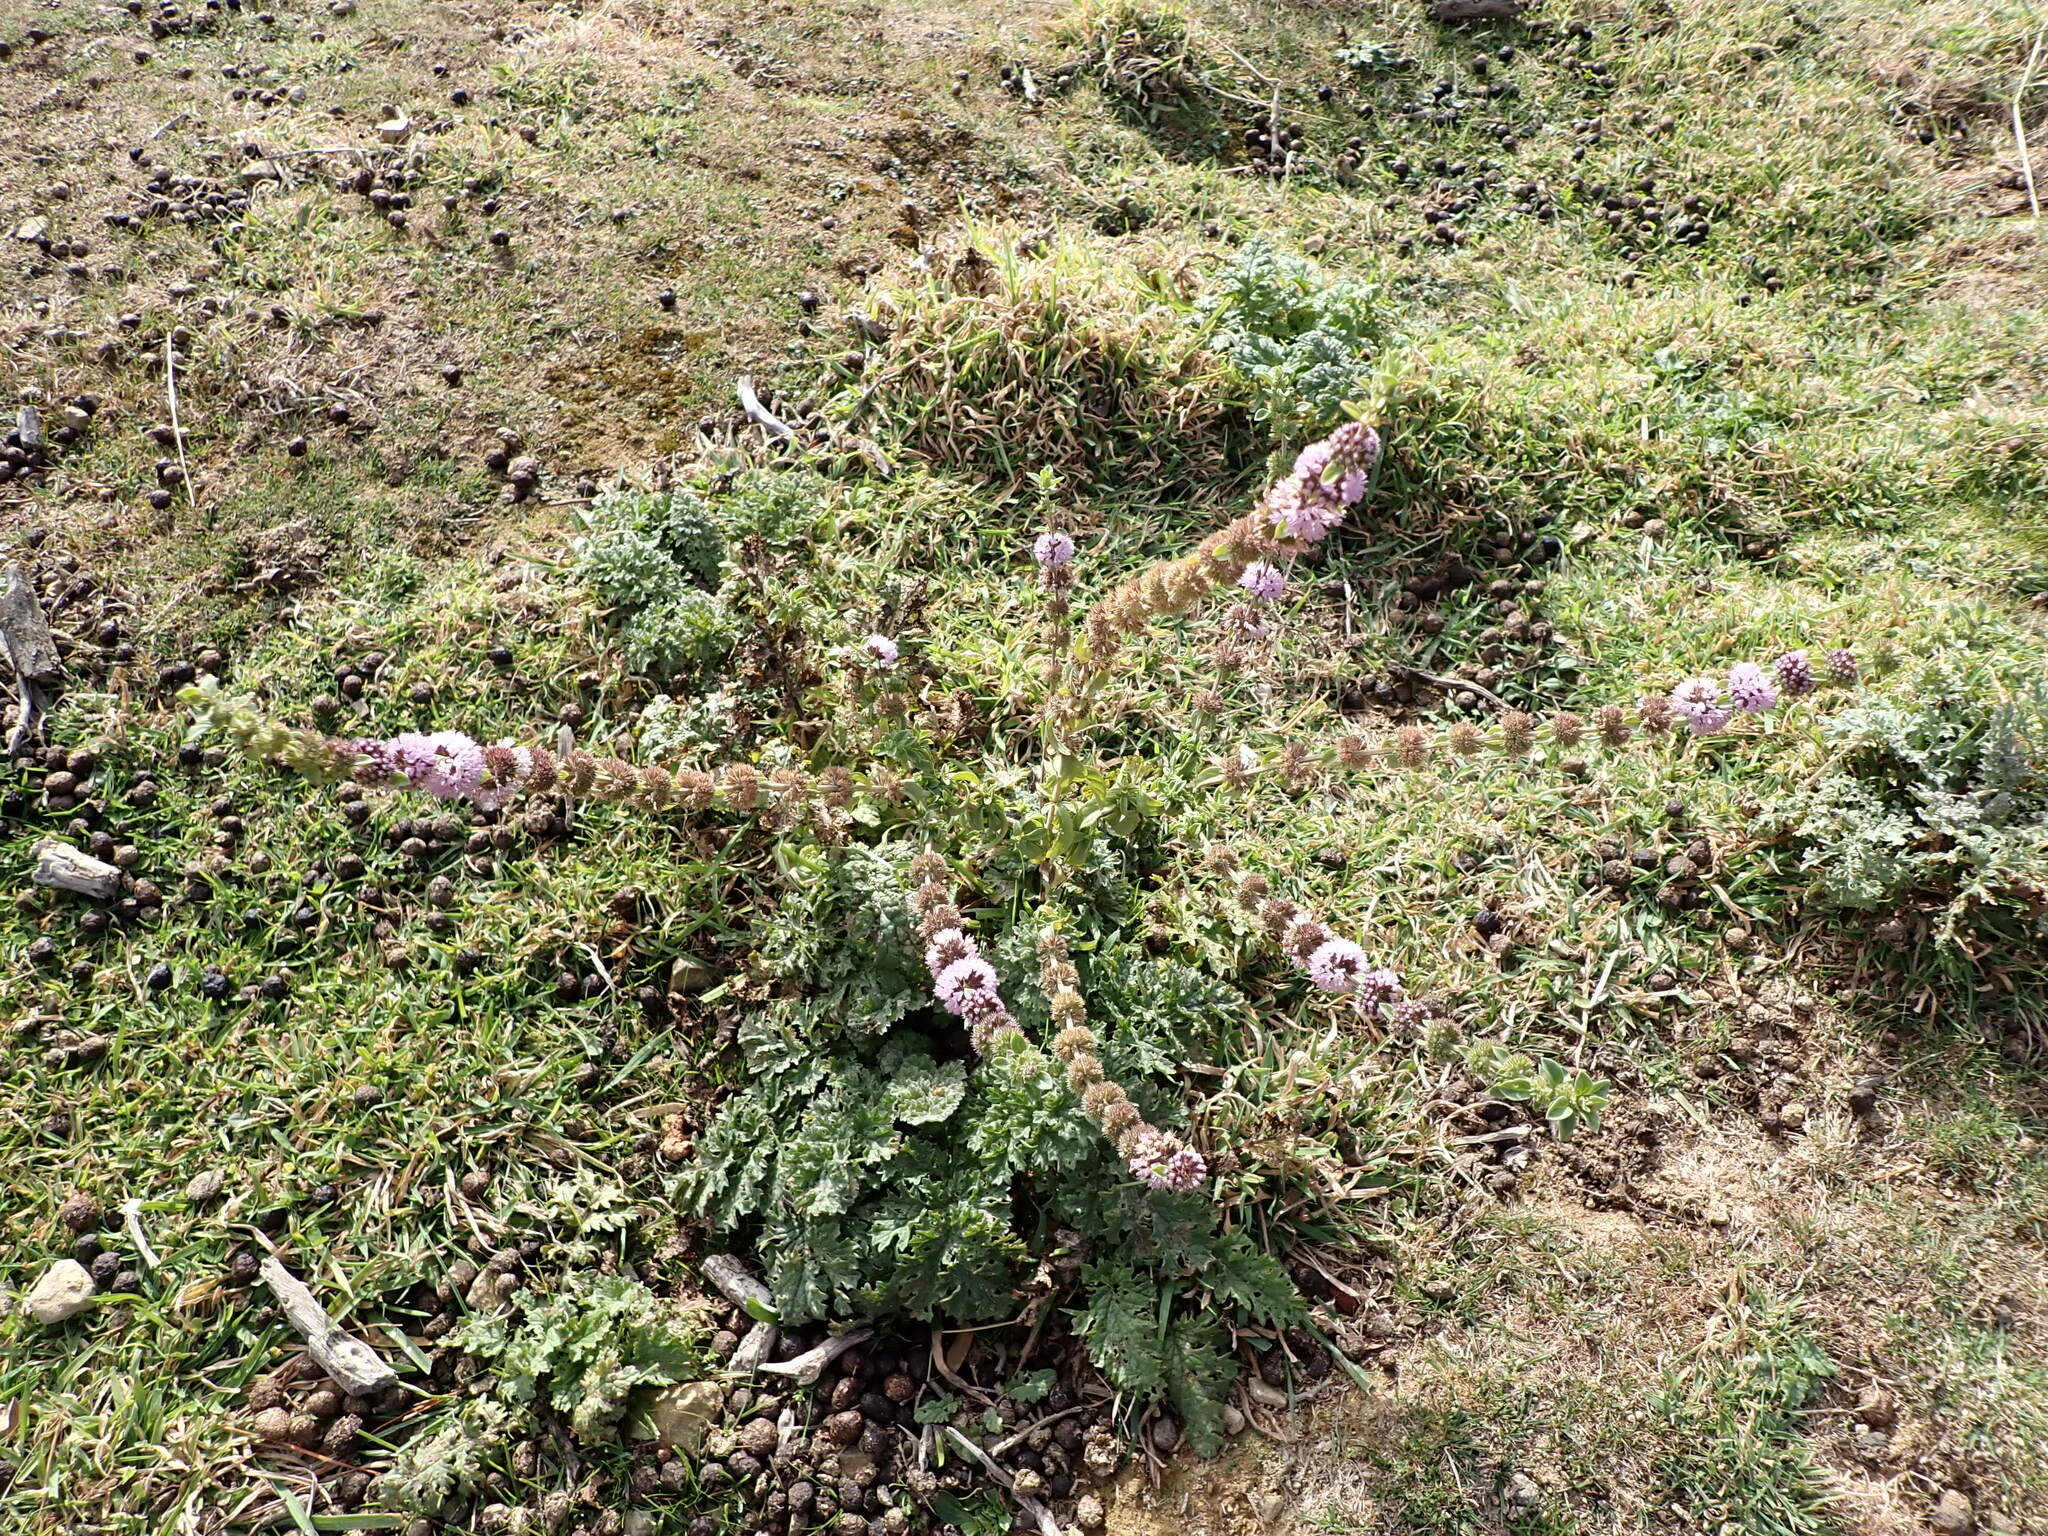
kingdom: Plantae
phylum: Tracheophyta
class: Magnoliopsida
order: Lamiales
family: Lamiaceae
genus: Mentha
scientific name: Mentha pulegium
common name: Pennyroyal
